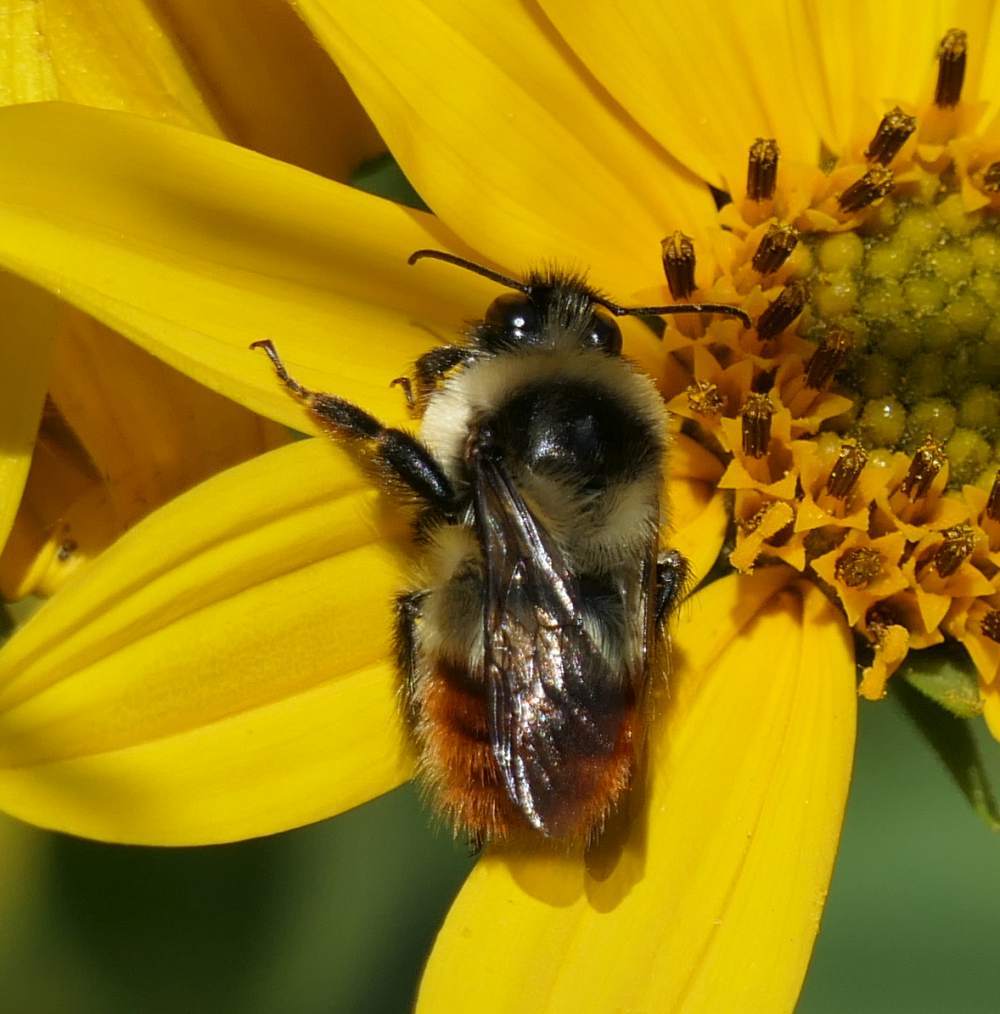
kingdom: Animalia
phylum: Arthropoda
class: Insecta
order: Hymenoptera
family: Apidae
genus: Bombus
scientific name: Bombus rufocinctus
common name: Red-belted bumble bee
